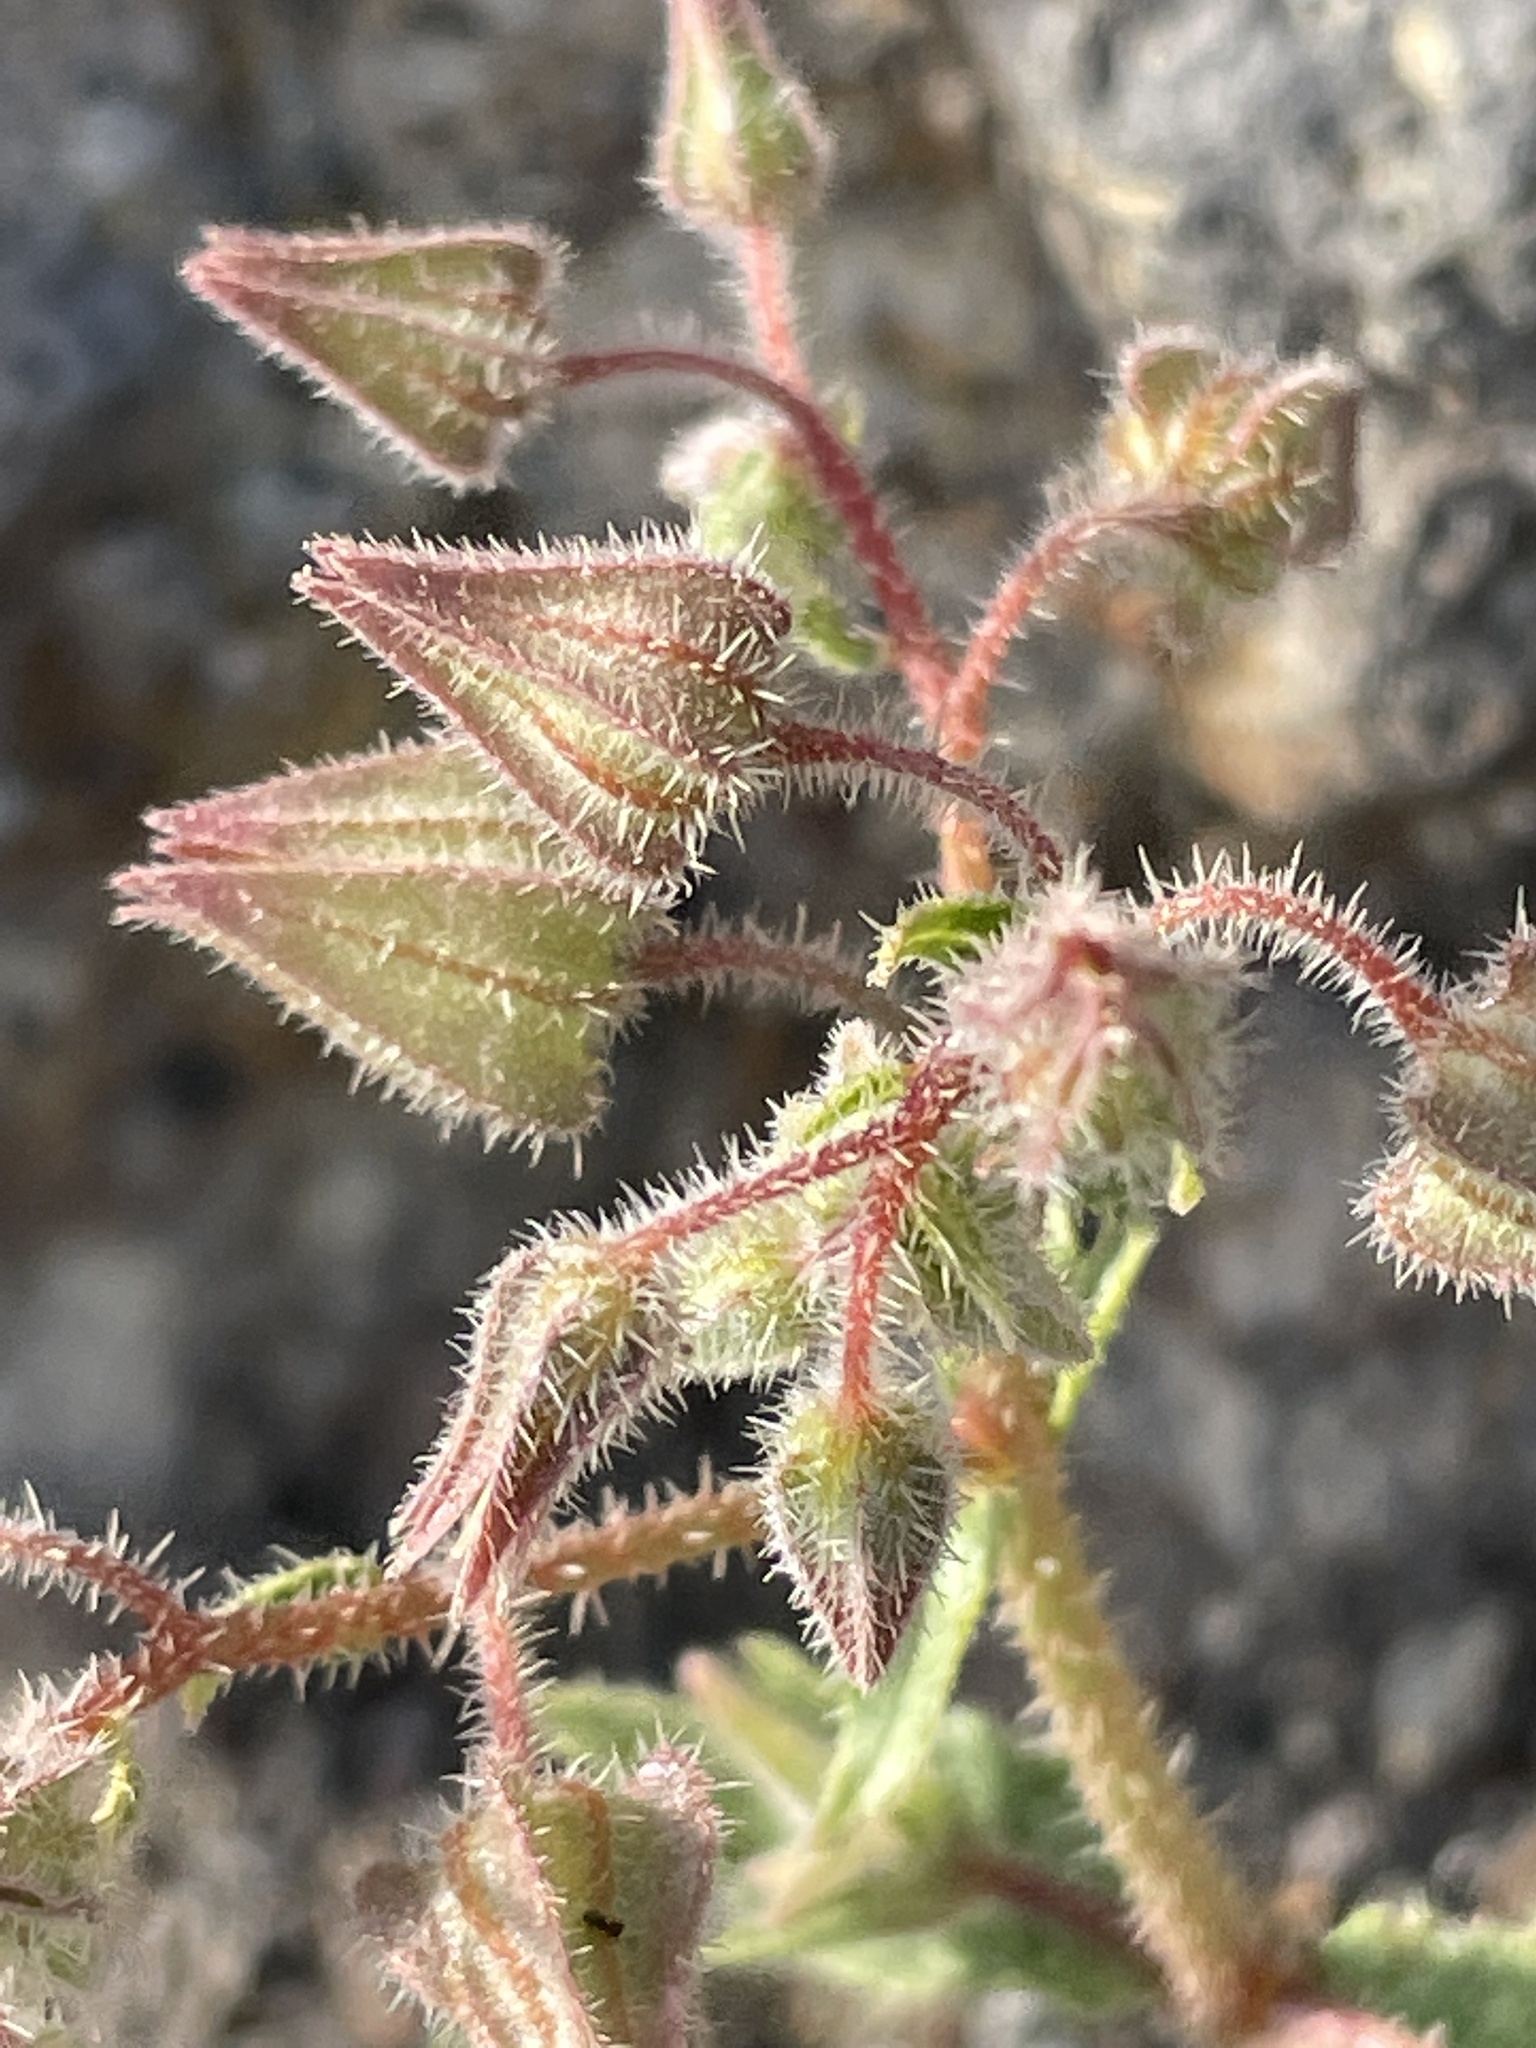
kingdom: Plantae
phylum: Tracheophyta
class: Magnoliopsida
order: Boraginales
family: Boraginaceae
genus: Trichodesma
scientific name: Trichodesma africanum
